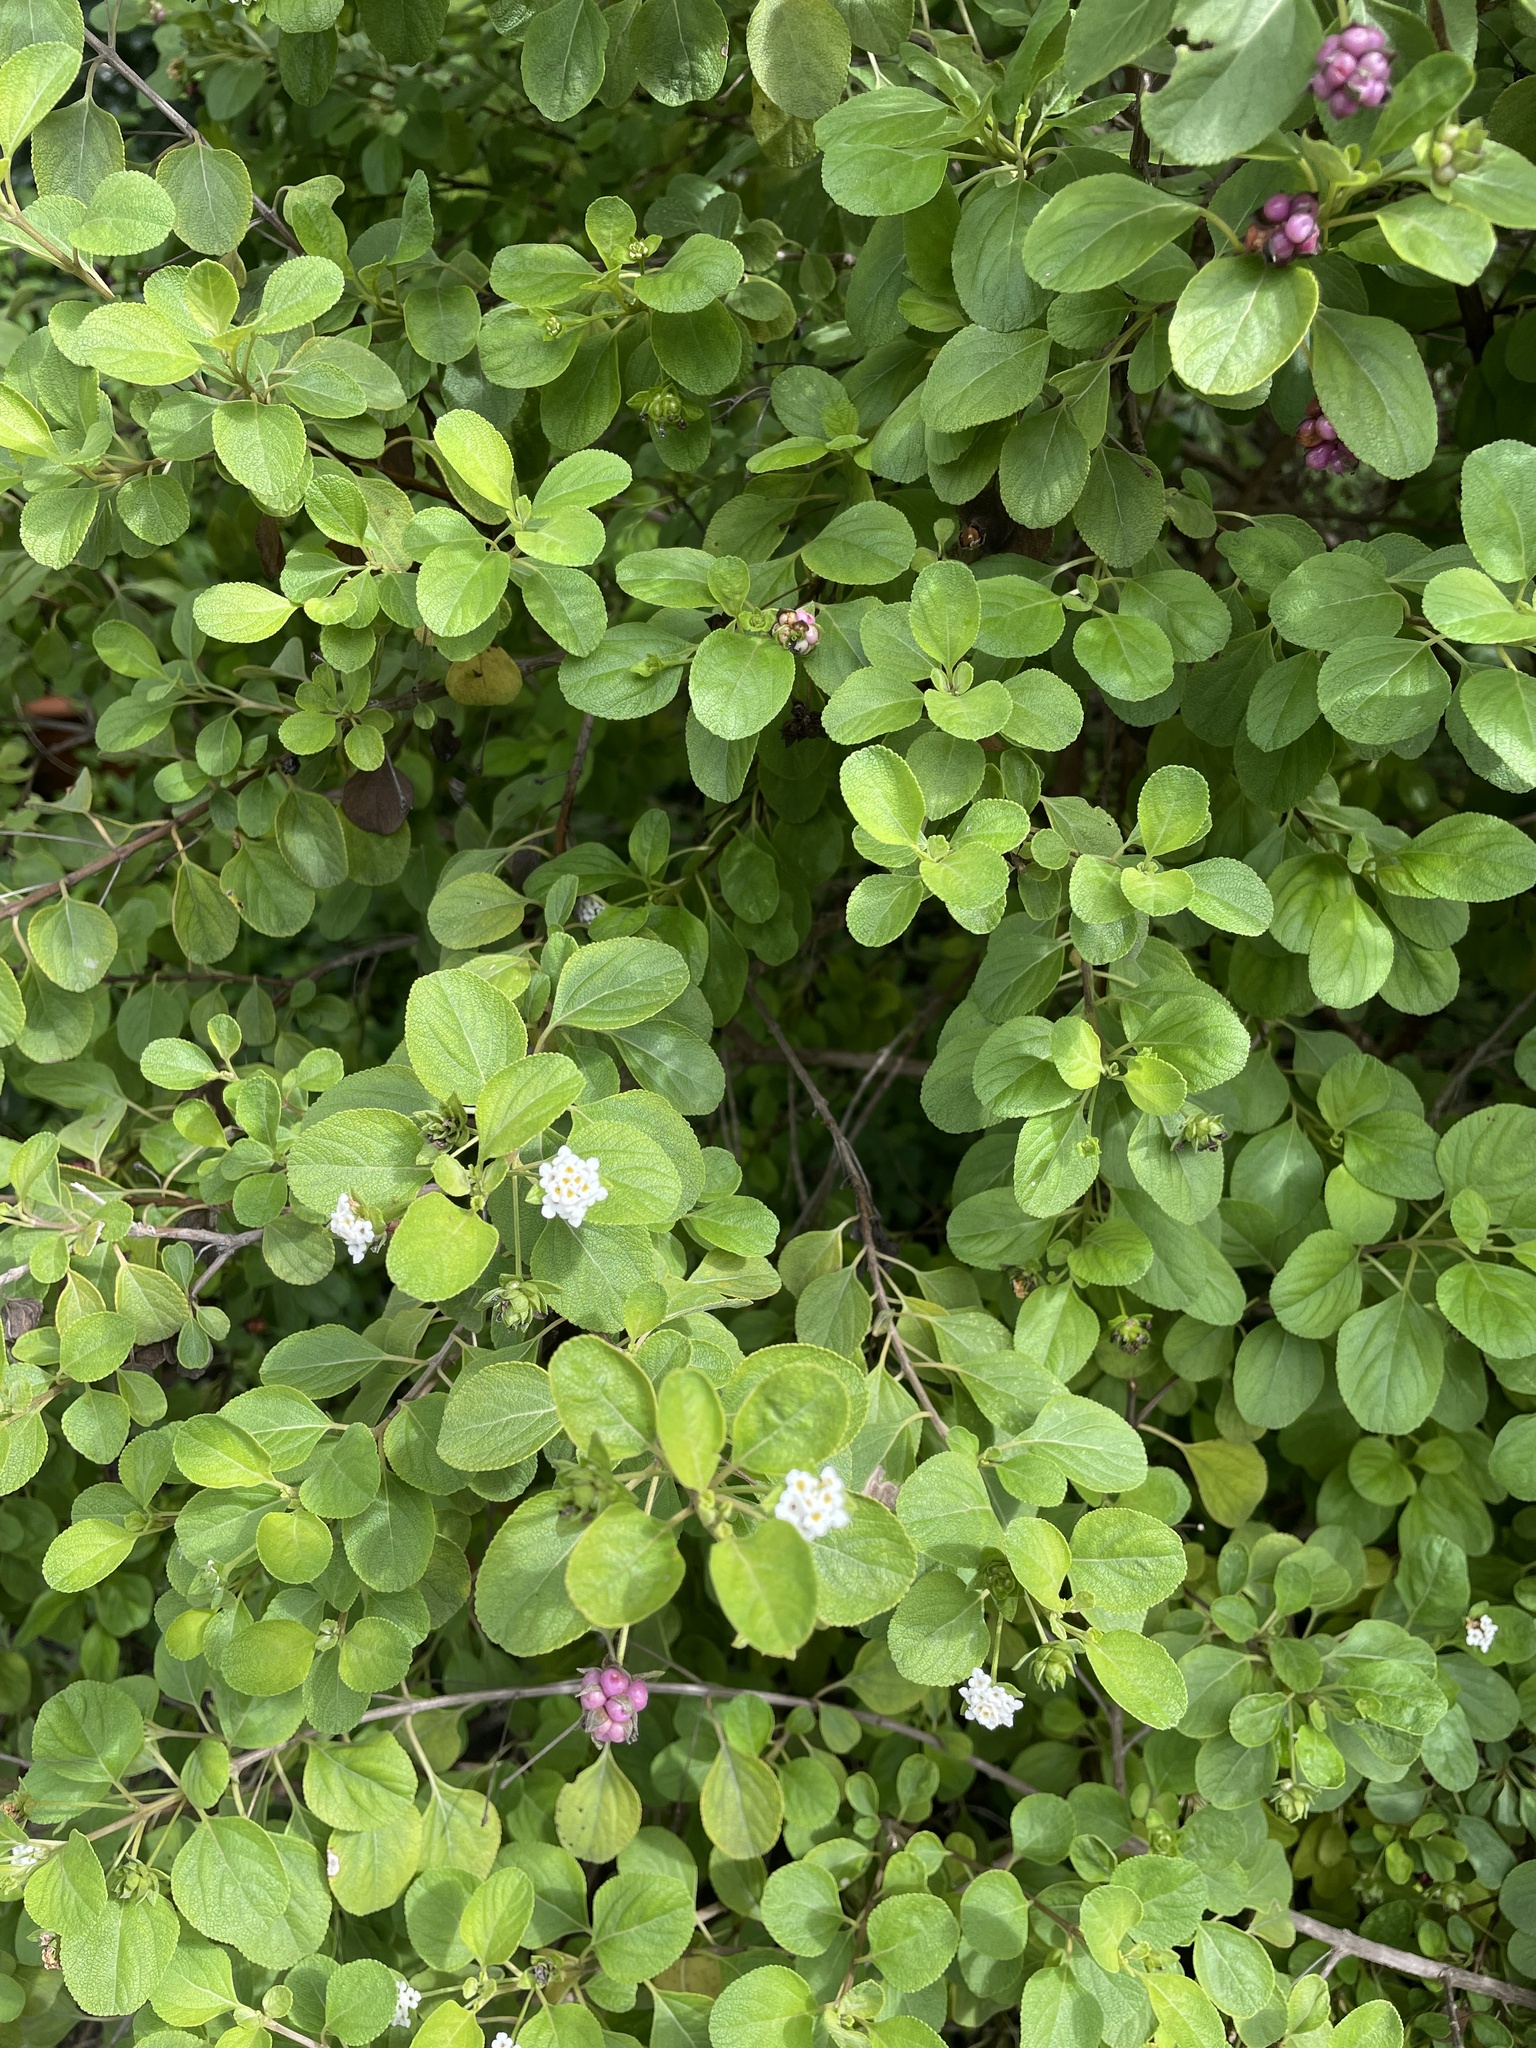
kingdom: Plantae
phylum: Tracheophyta
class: Magnoliopsida
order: Lamiales
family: Verbenaceae
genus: Lantana
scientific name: Lantana involucrata
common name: Black sage
